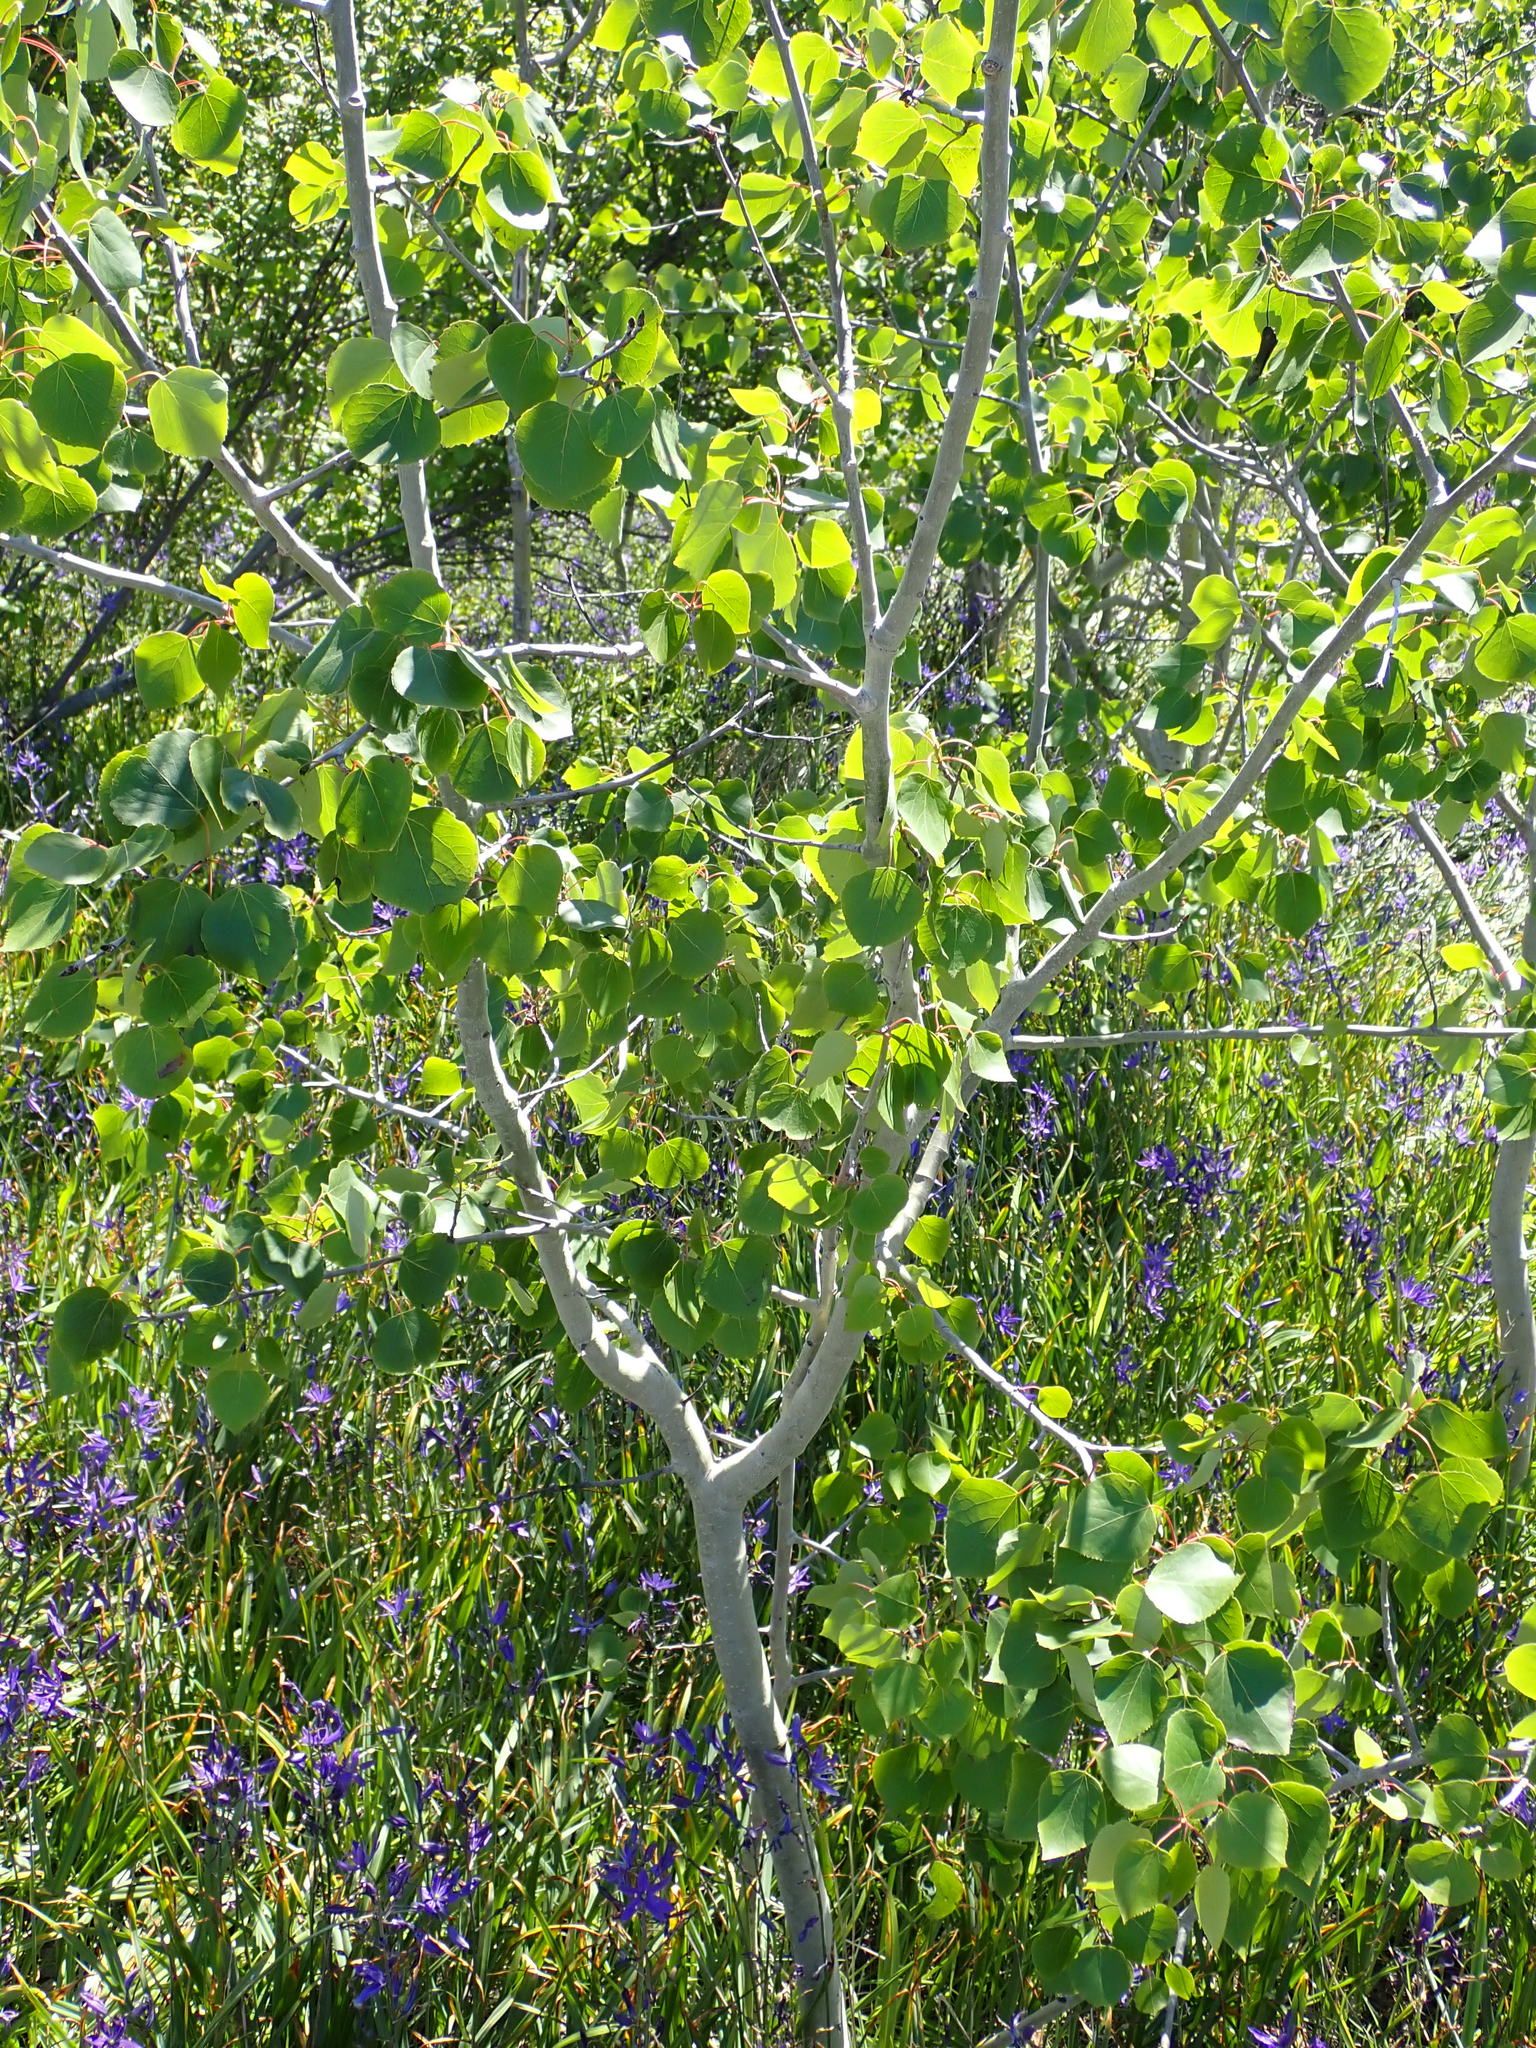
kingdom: Plantae
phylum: Tracheophyta
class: Magnoliopsida
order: Malpighiales
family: Salicaceae
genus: Populus
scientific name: Populus tremuloides
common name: Quaking aspen
